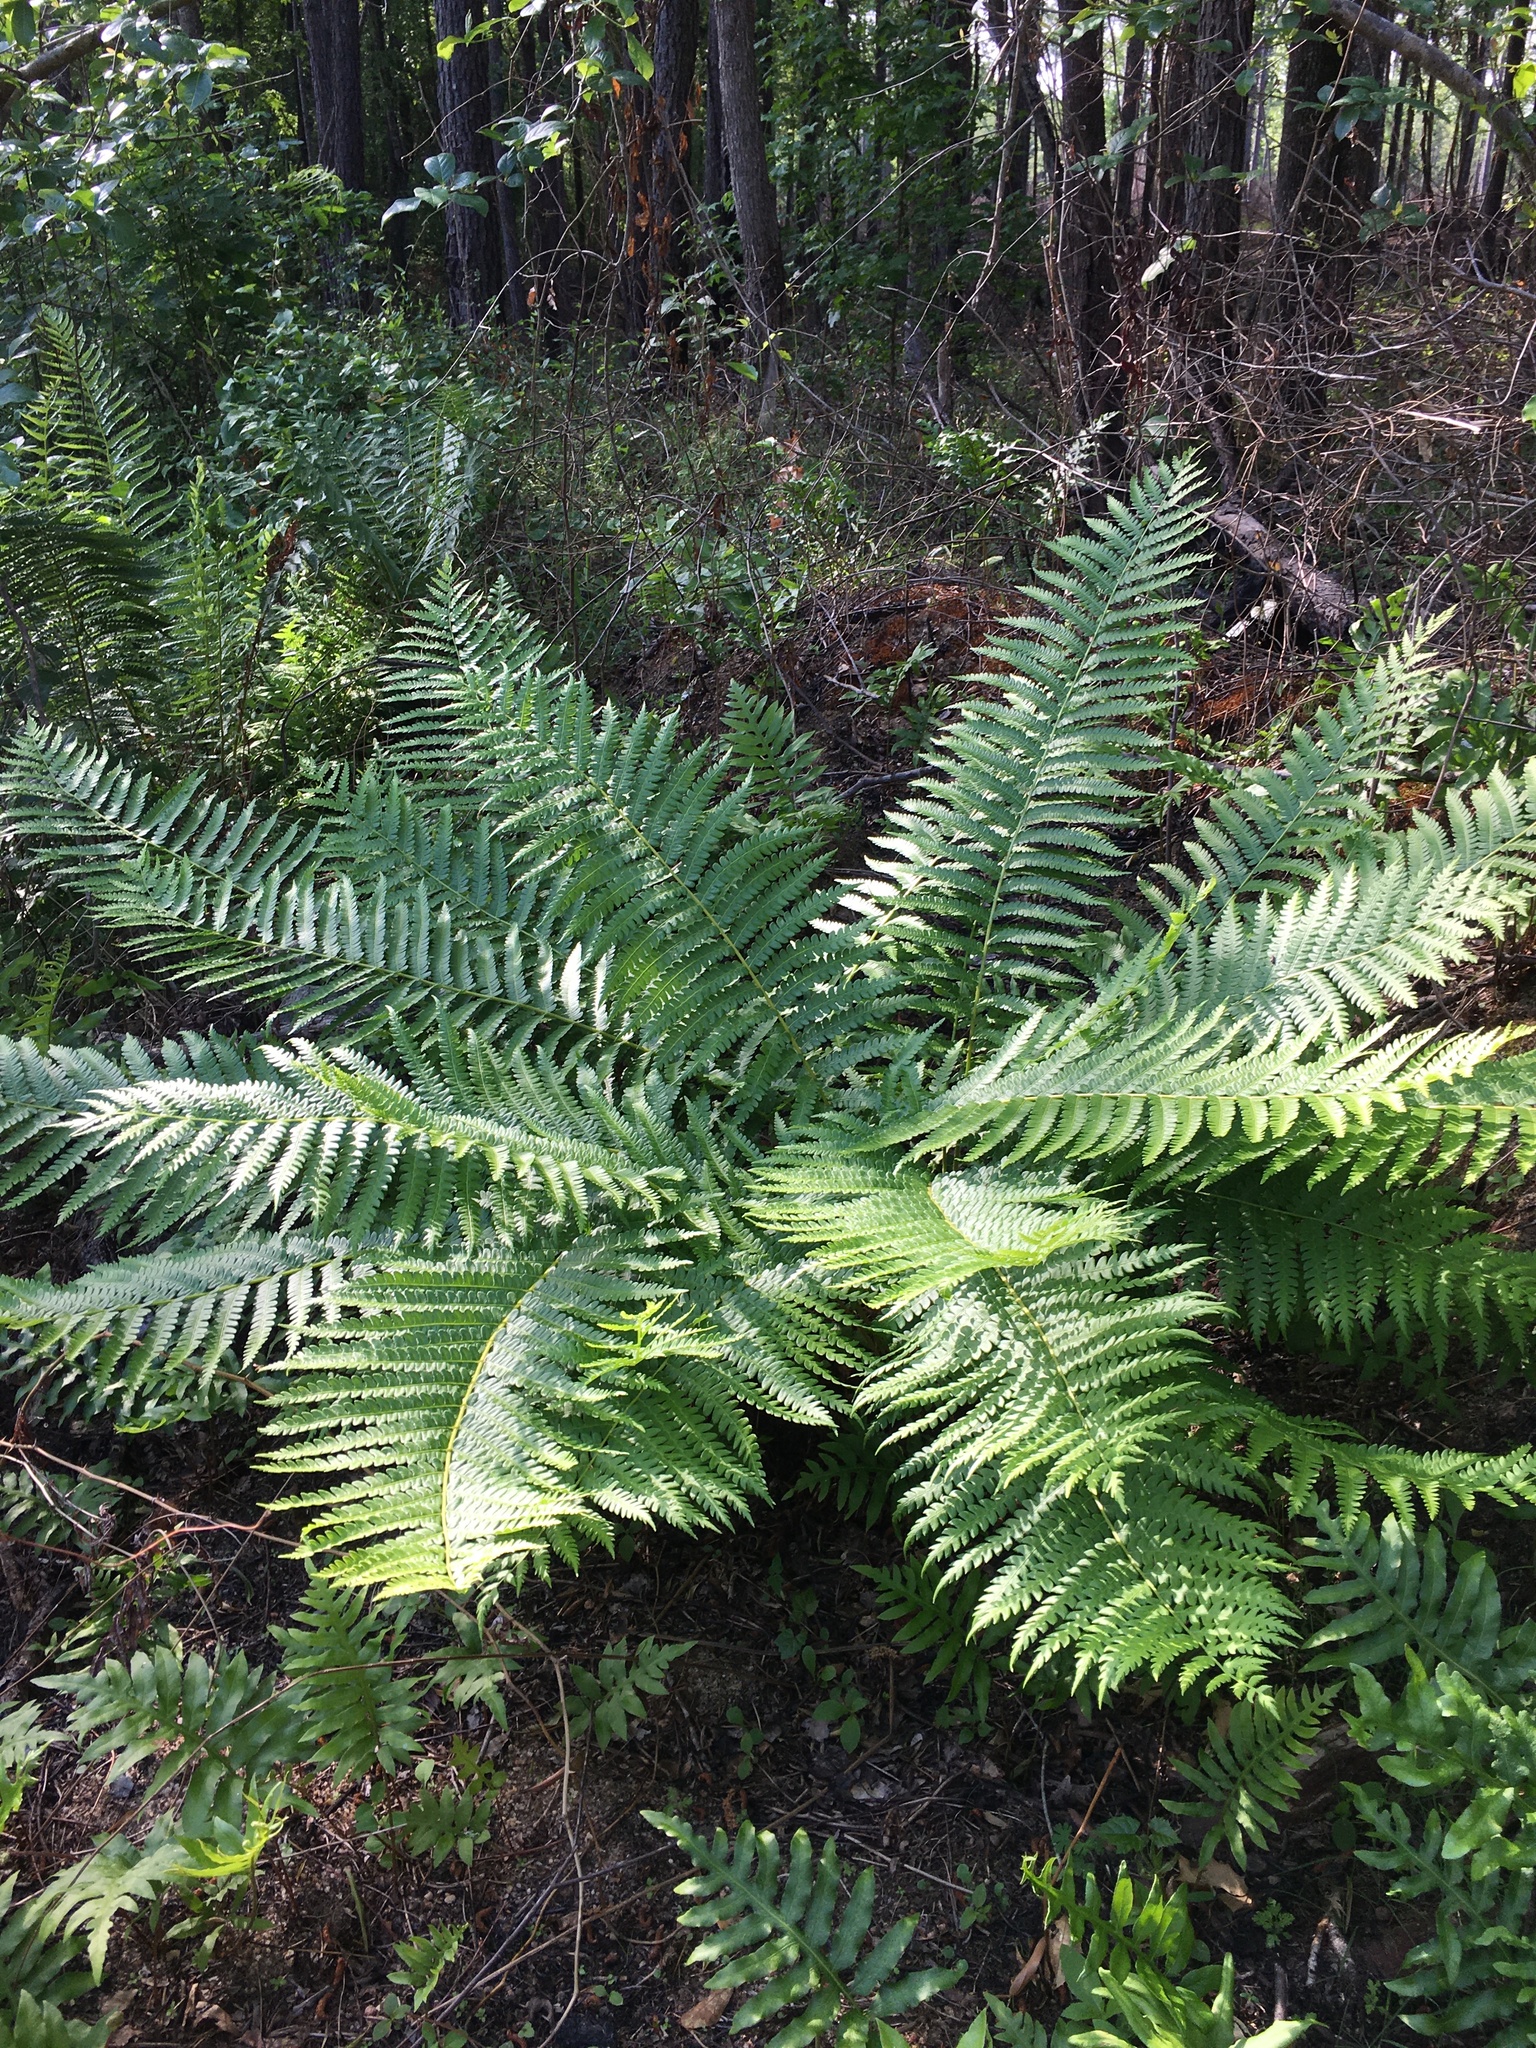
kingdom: Plantae
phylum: Tracheophyta
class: Polypodiopsida
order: Osmundales
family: Osmundaceae
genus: Osmundastrum
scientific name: Osmundastrum cinnamomeum
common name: Cinnamon fern
